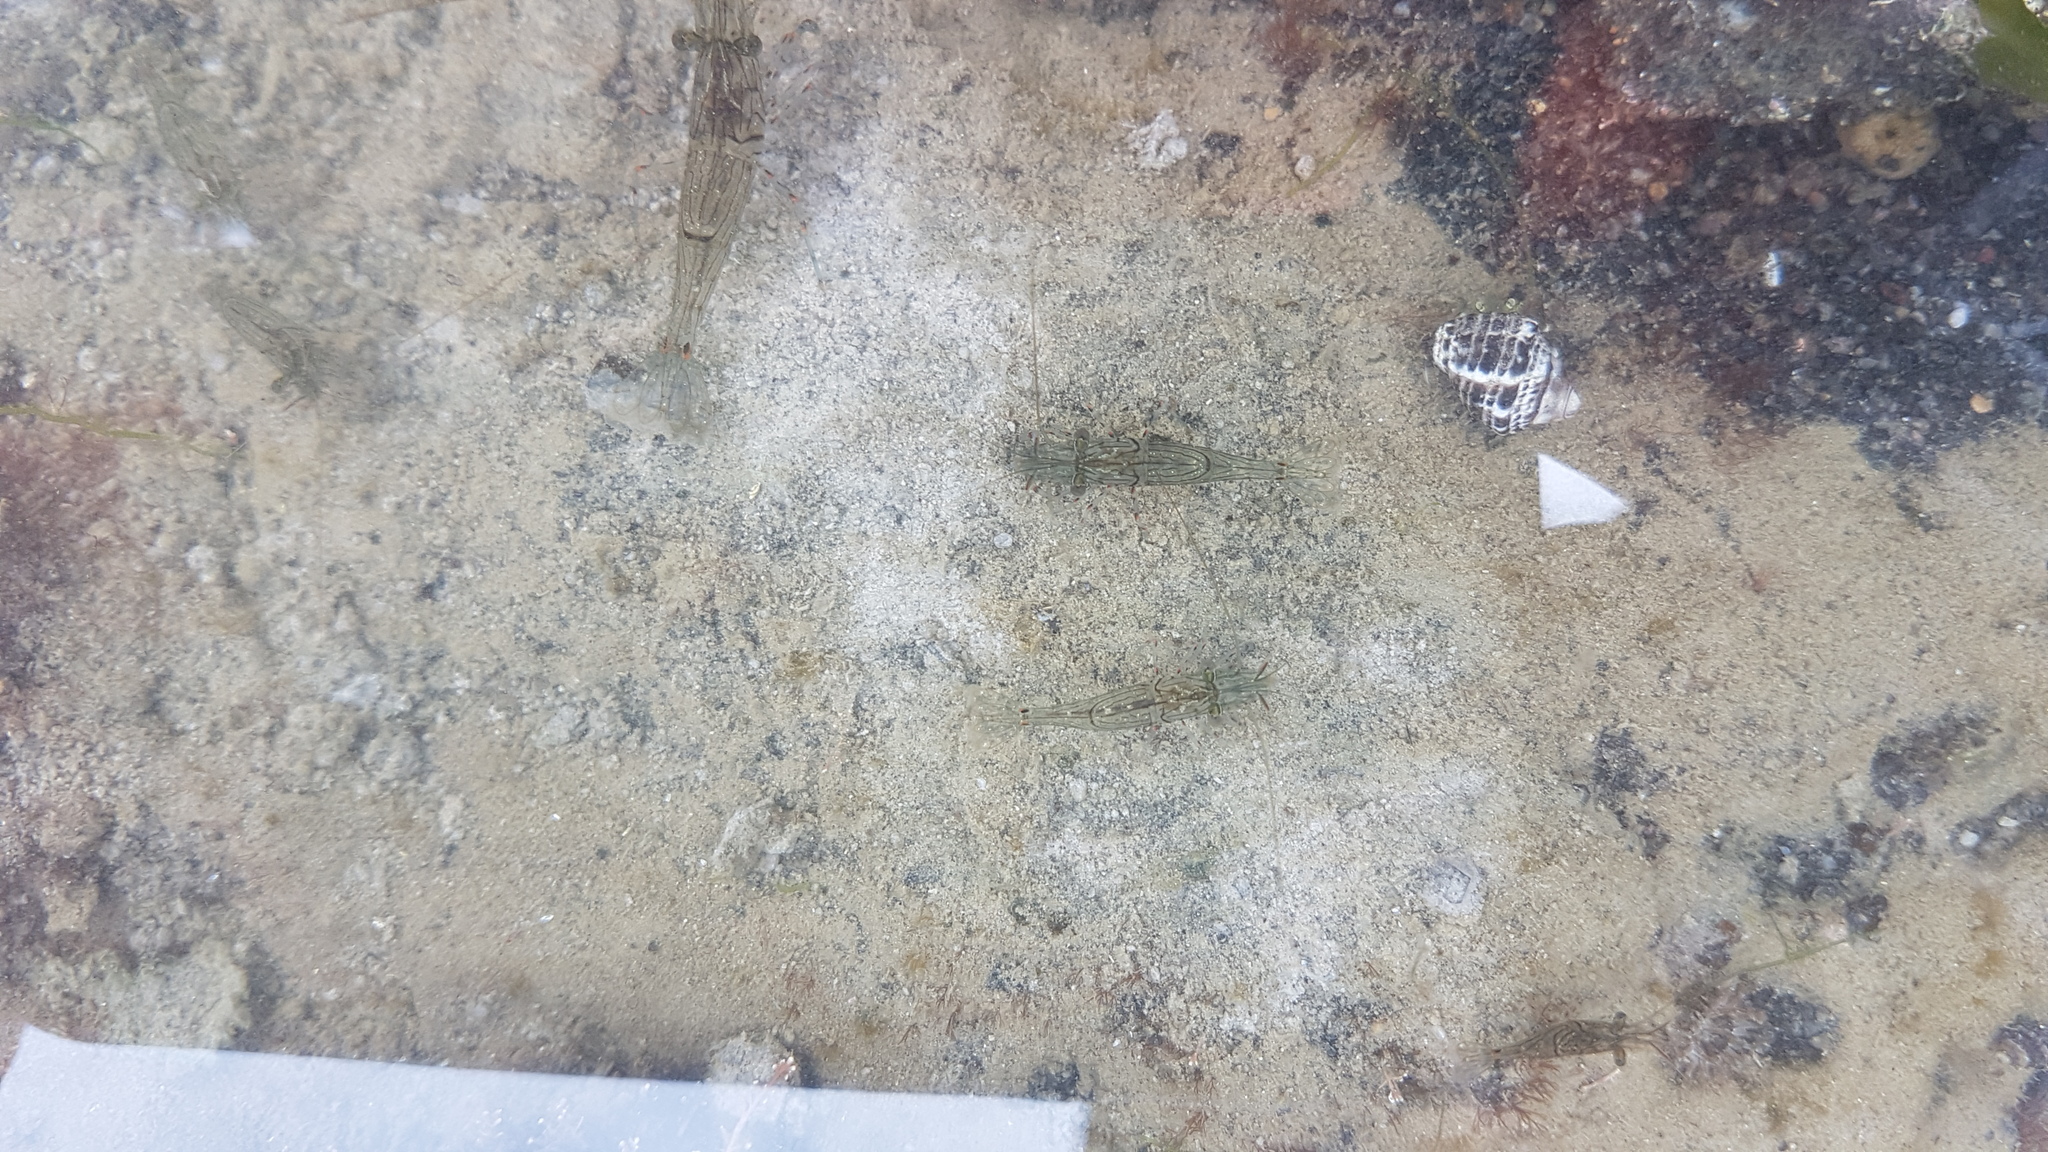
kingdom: Animalia
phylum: Arthropoda
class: Malacostraca
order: Decapoda
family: Palaemonidae
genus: Palaemon
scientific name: Palaemon affinis
